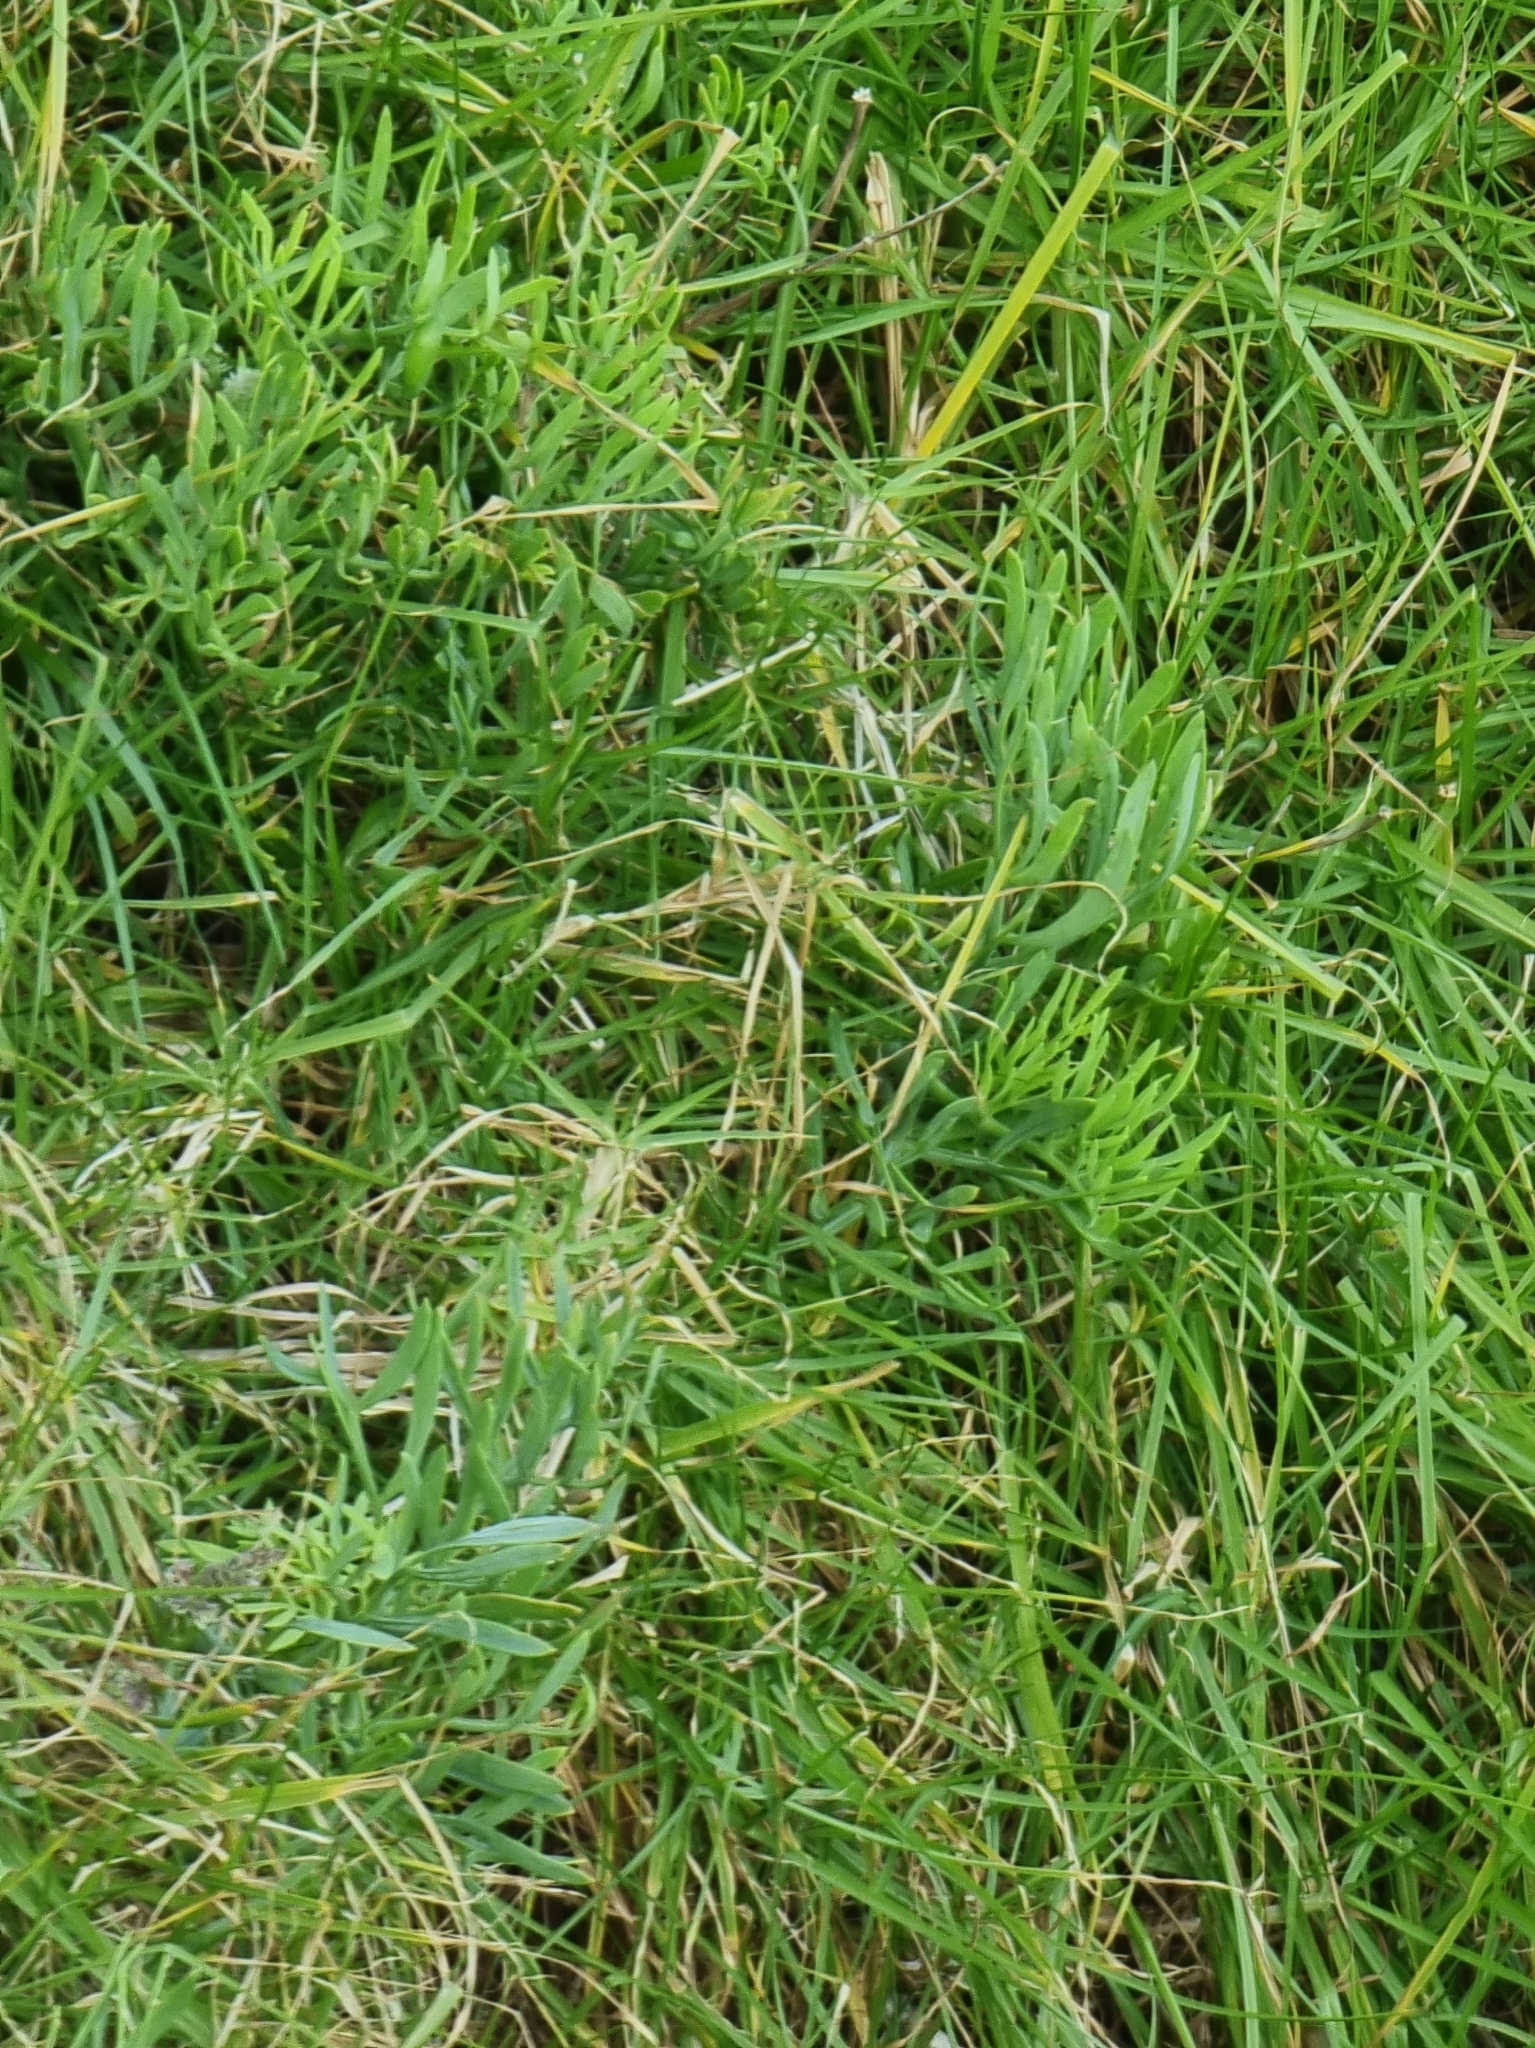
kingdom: Plantae
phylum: Tracheophyta
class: Magnoliopsida
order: Apiales
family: Apiaceae
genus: Crithmum
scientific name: Crithmum maritimum
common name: Rock samphire
